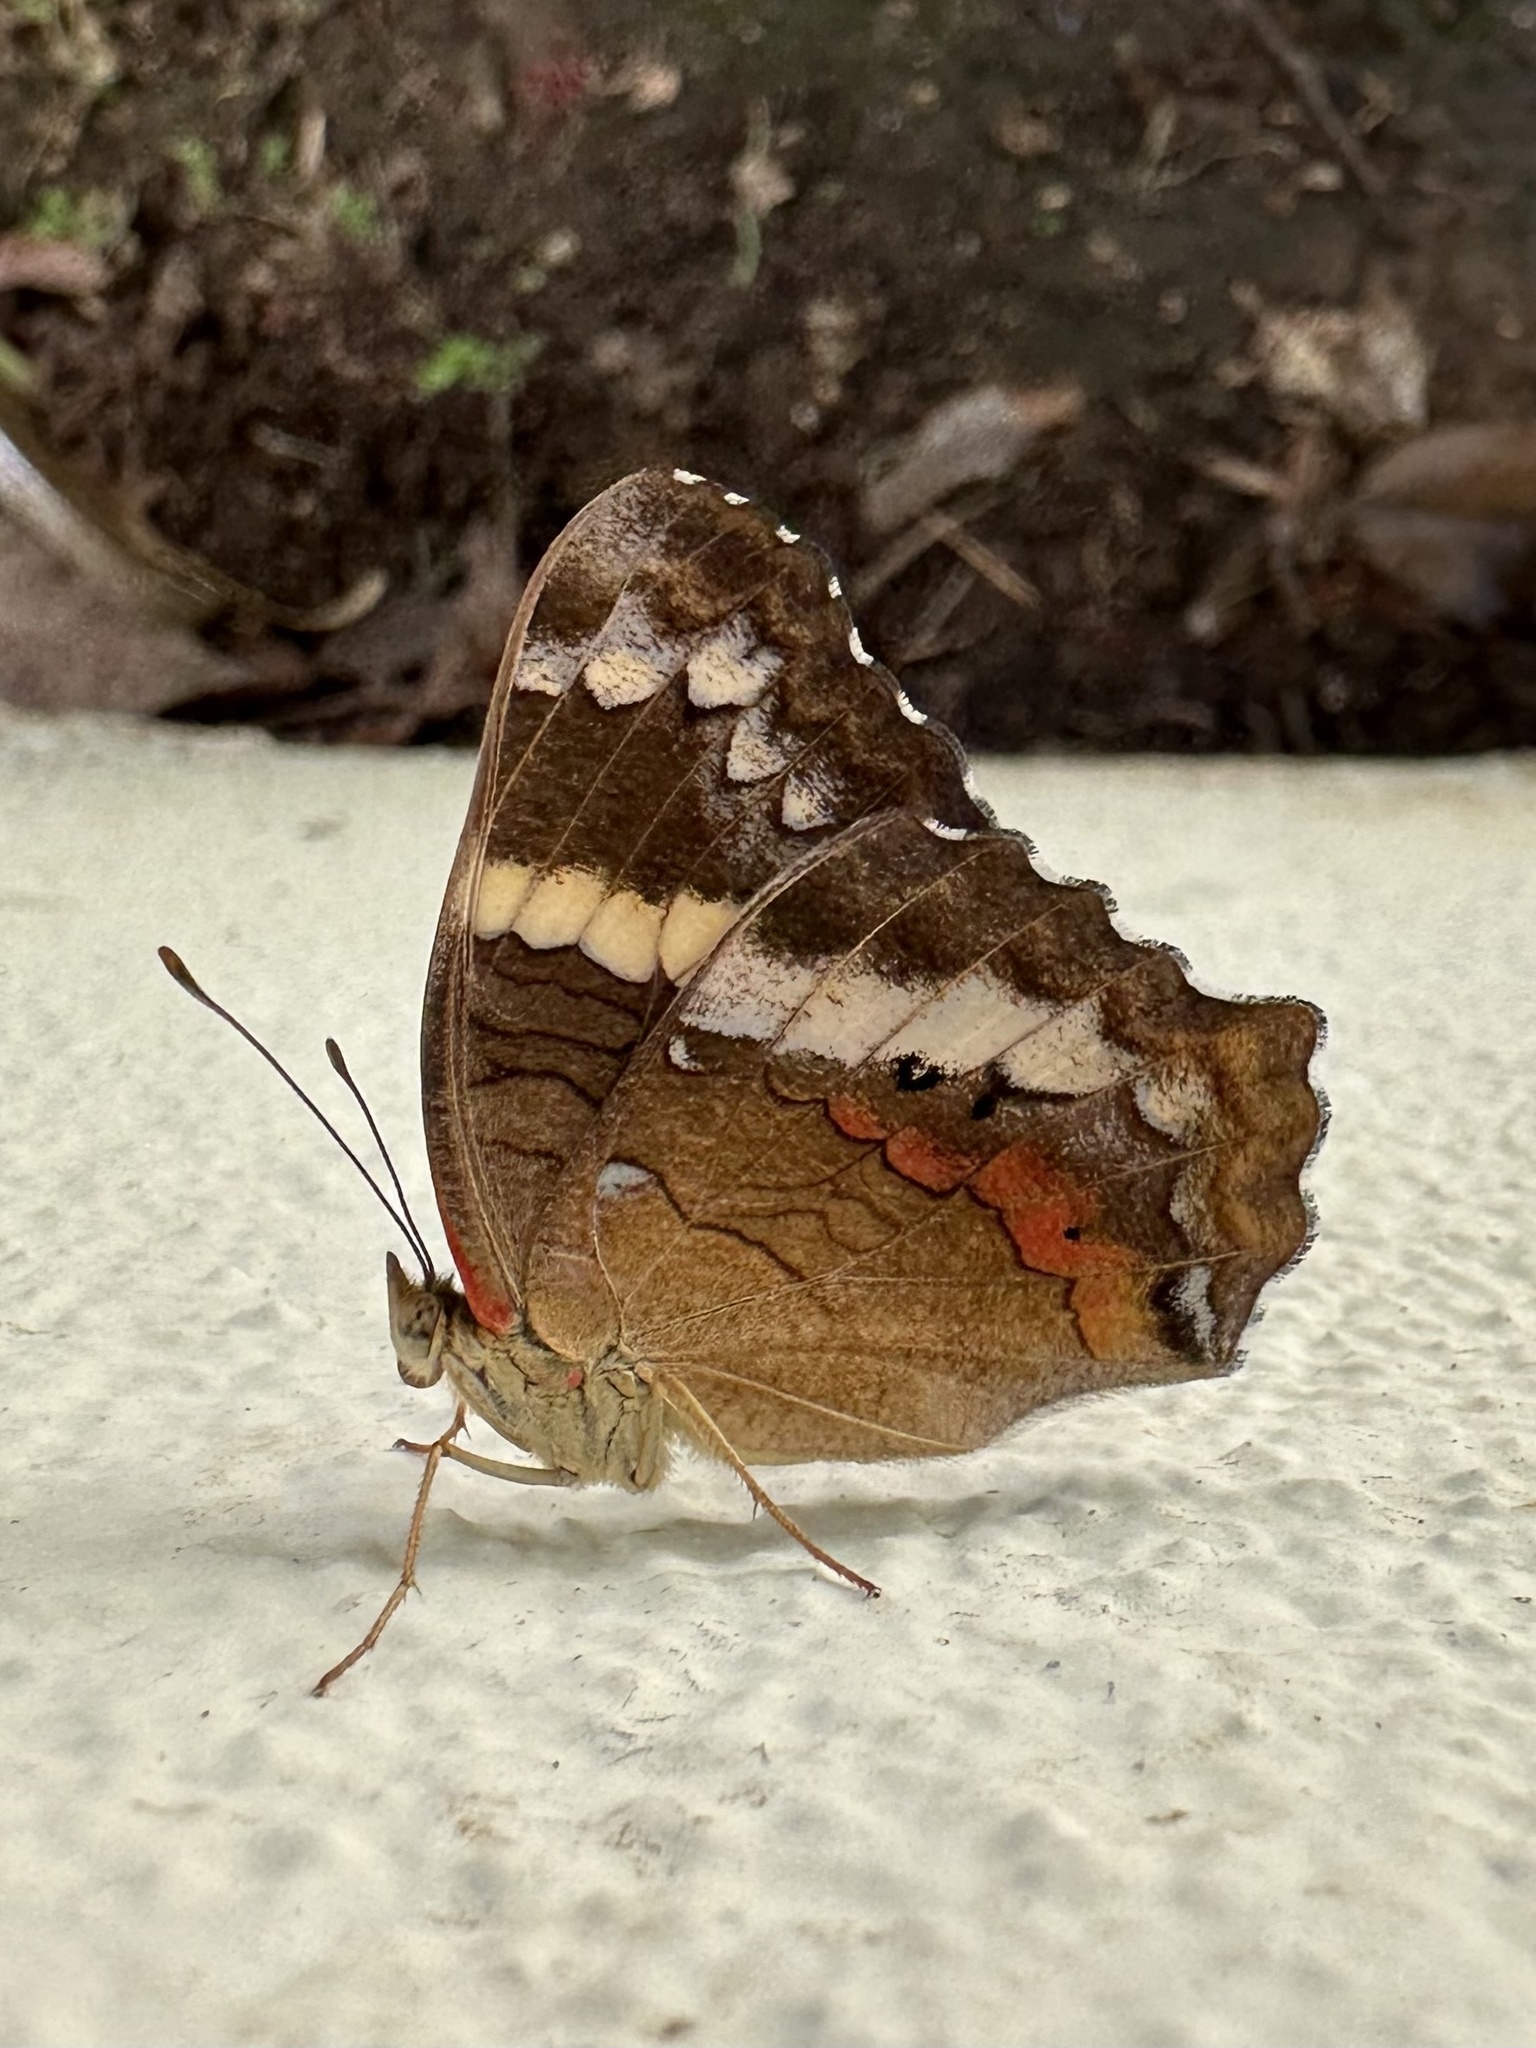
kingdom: Animalia
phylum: Arthropoda
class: Insecta
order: Lepidoptera
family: Nymphalidae
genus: Anartia
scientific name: Anartia fatima
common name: Banded peacock
